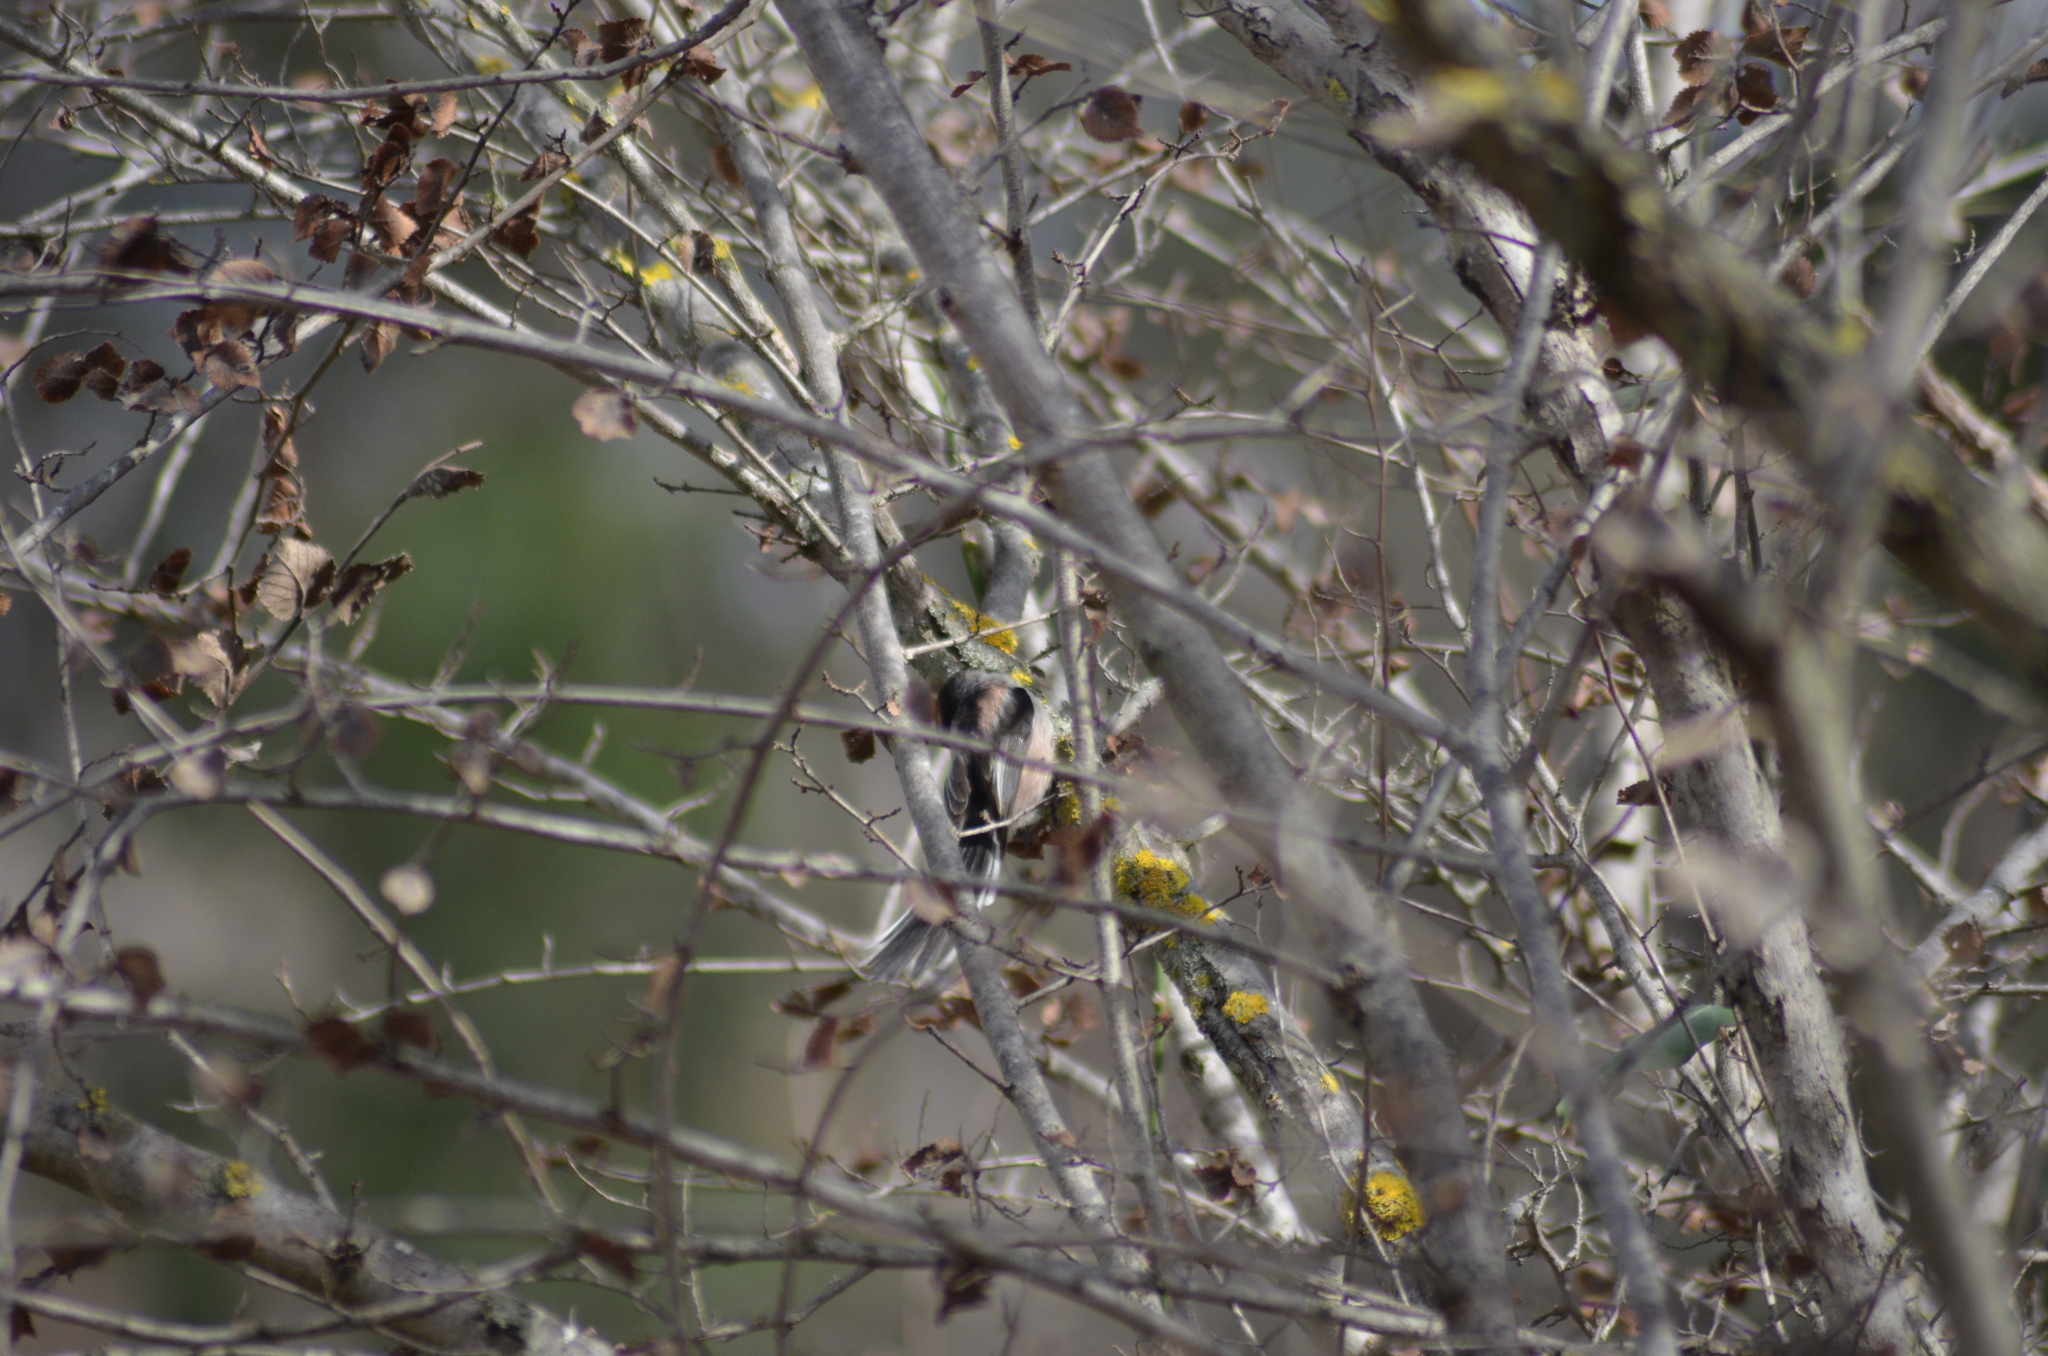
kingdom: Animalia
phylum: Chordata
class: Aves
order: Passeriformes
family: Aegithalidae
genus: Aegithalos
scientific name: Aegithalos caudatus
